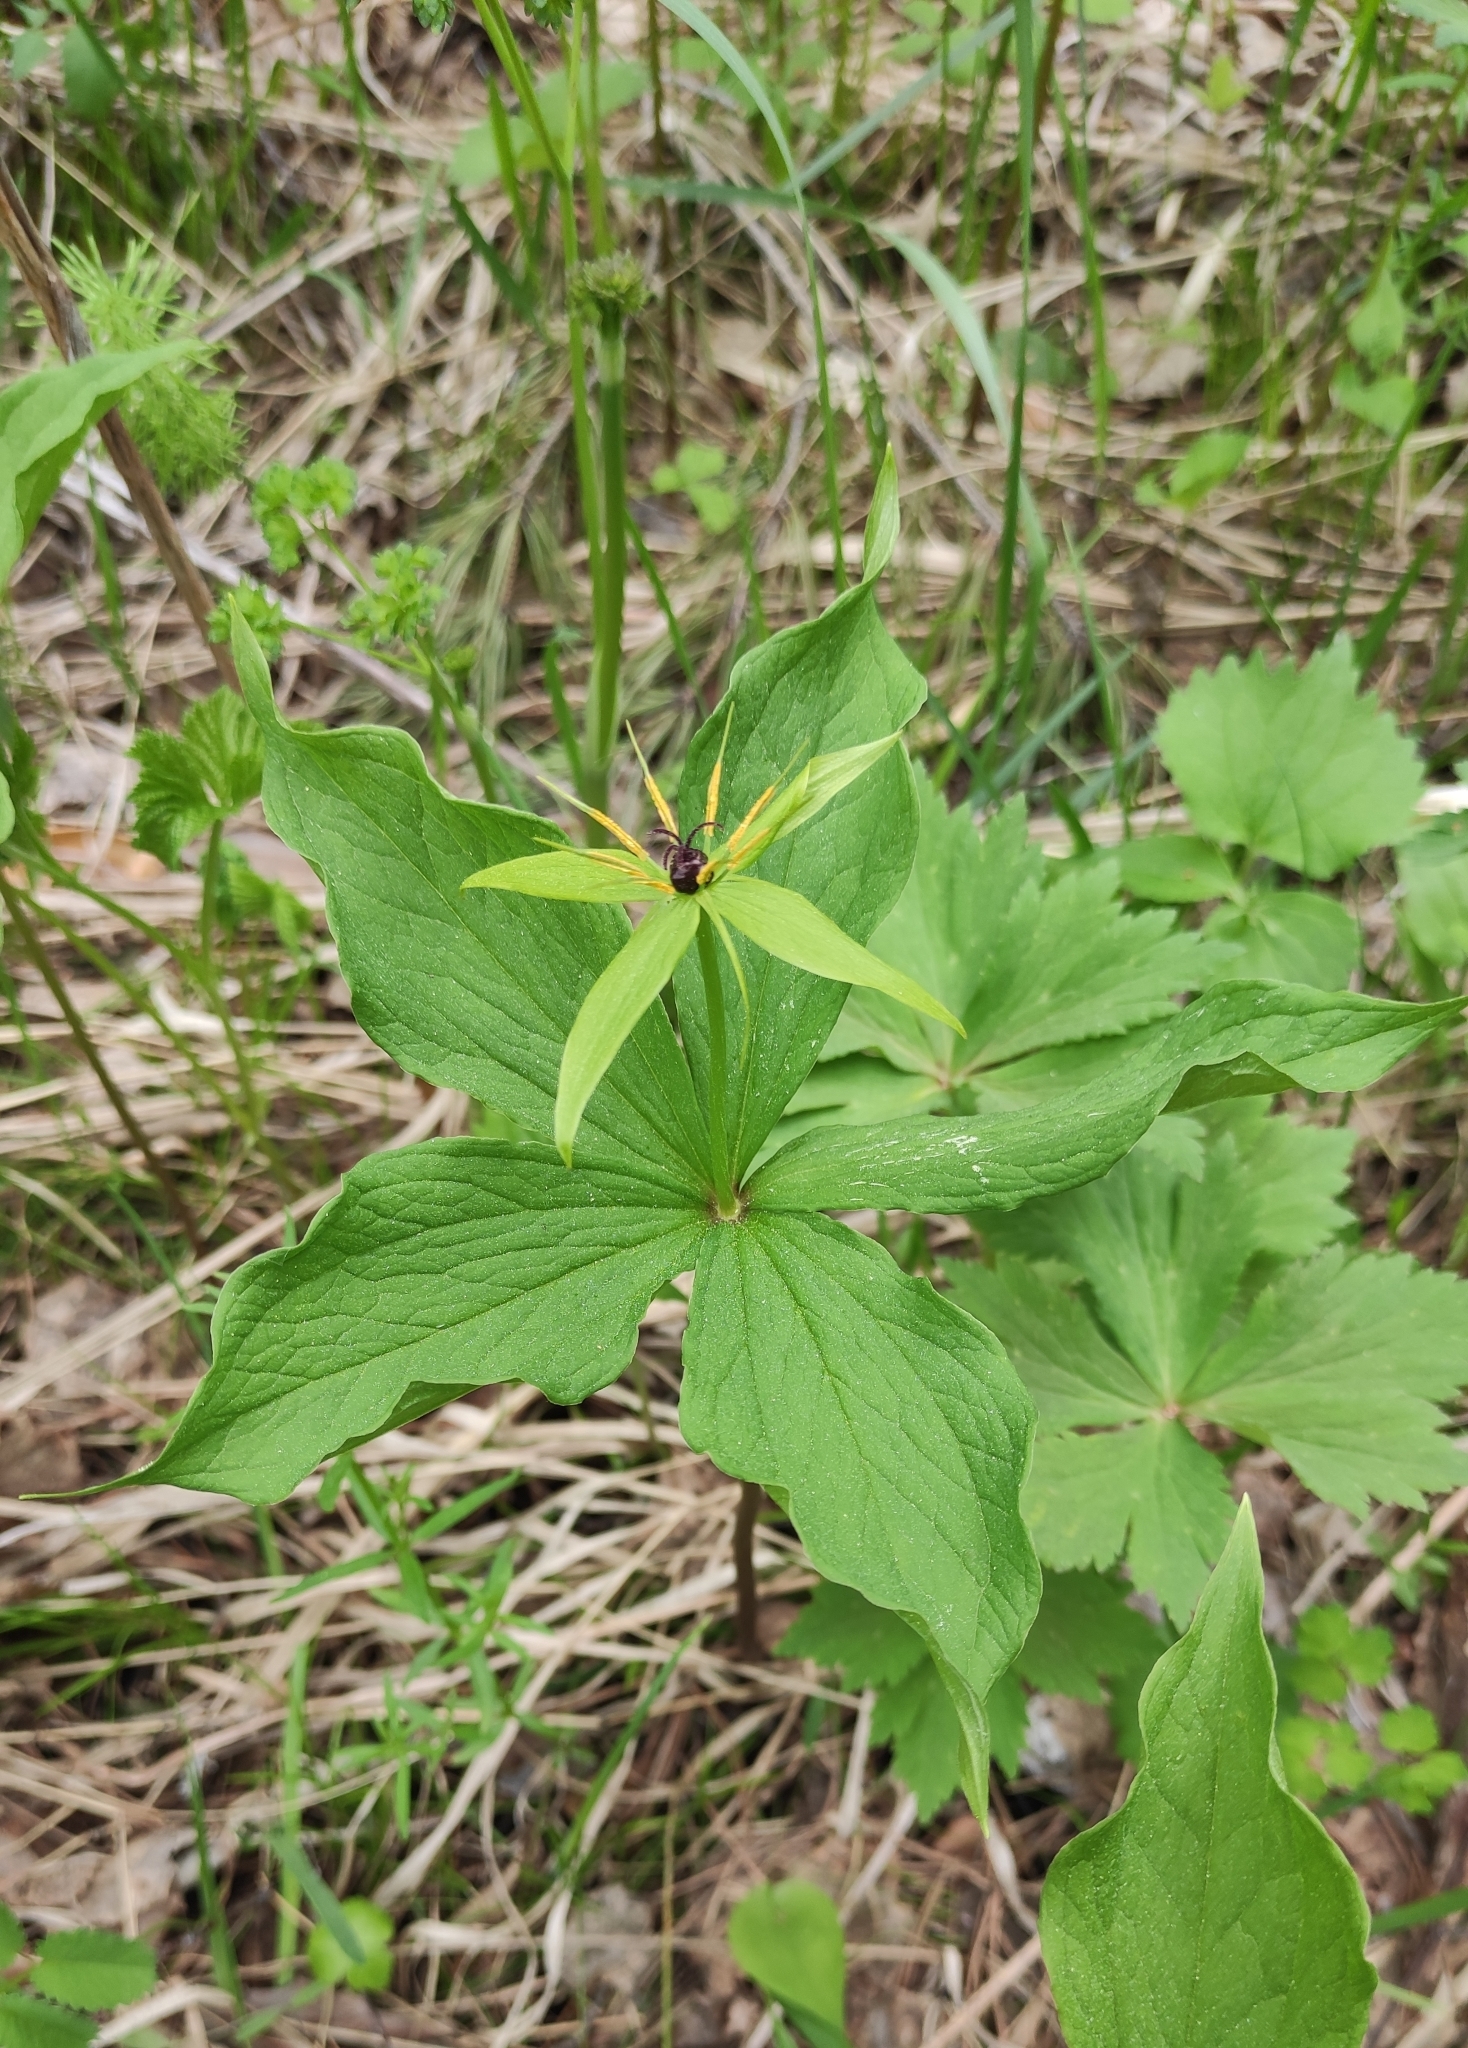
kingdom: Plantae
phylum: Tracheophyta
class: Liliopsida
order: Liliales
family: Melanthiaceae
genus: Paris
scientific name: Paris verticillata
